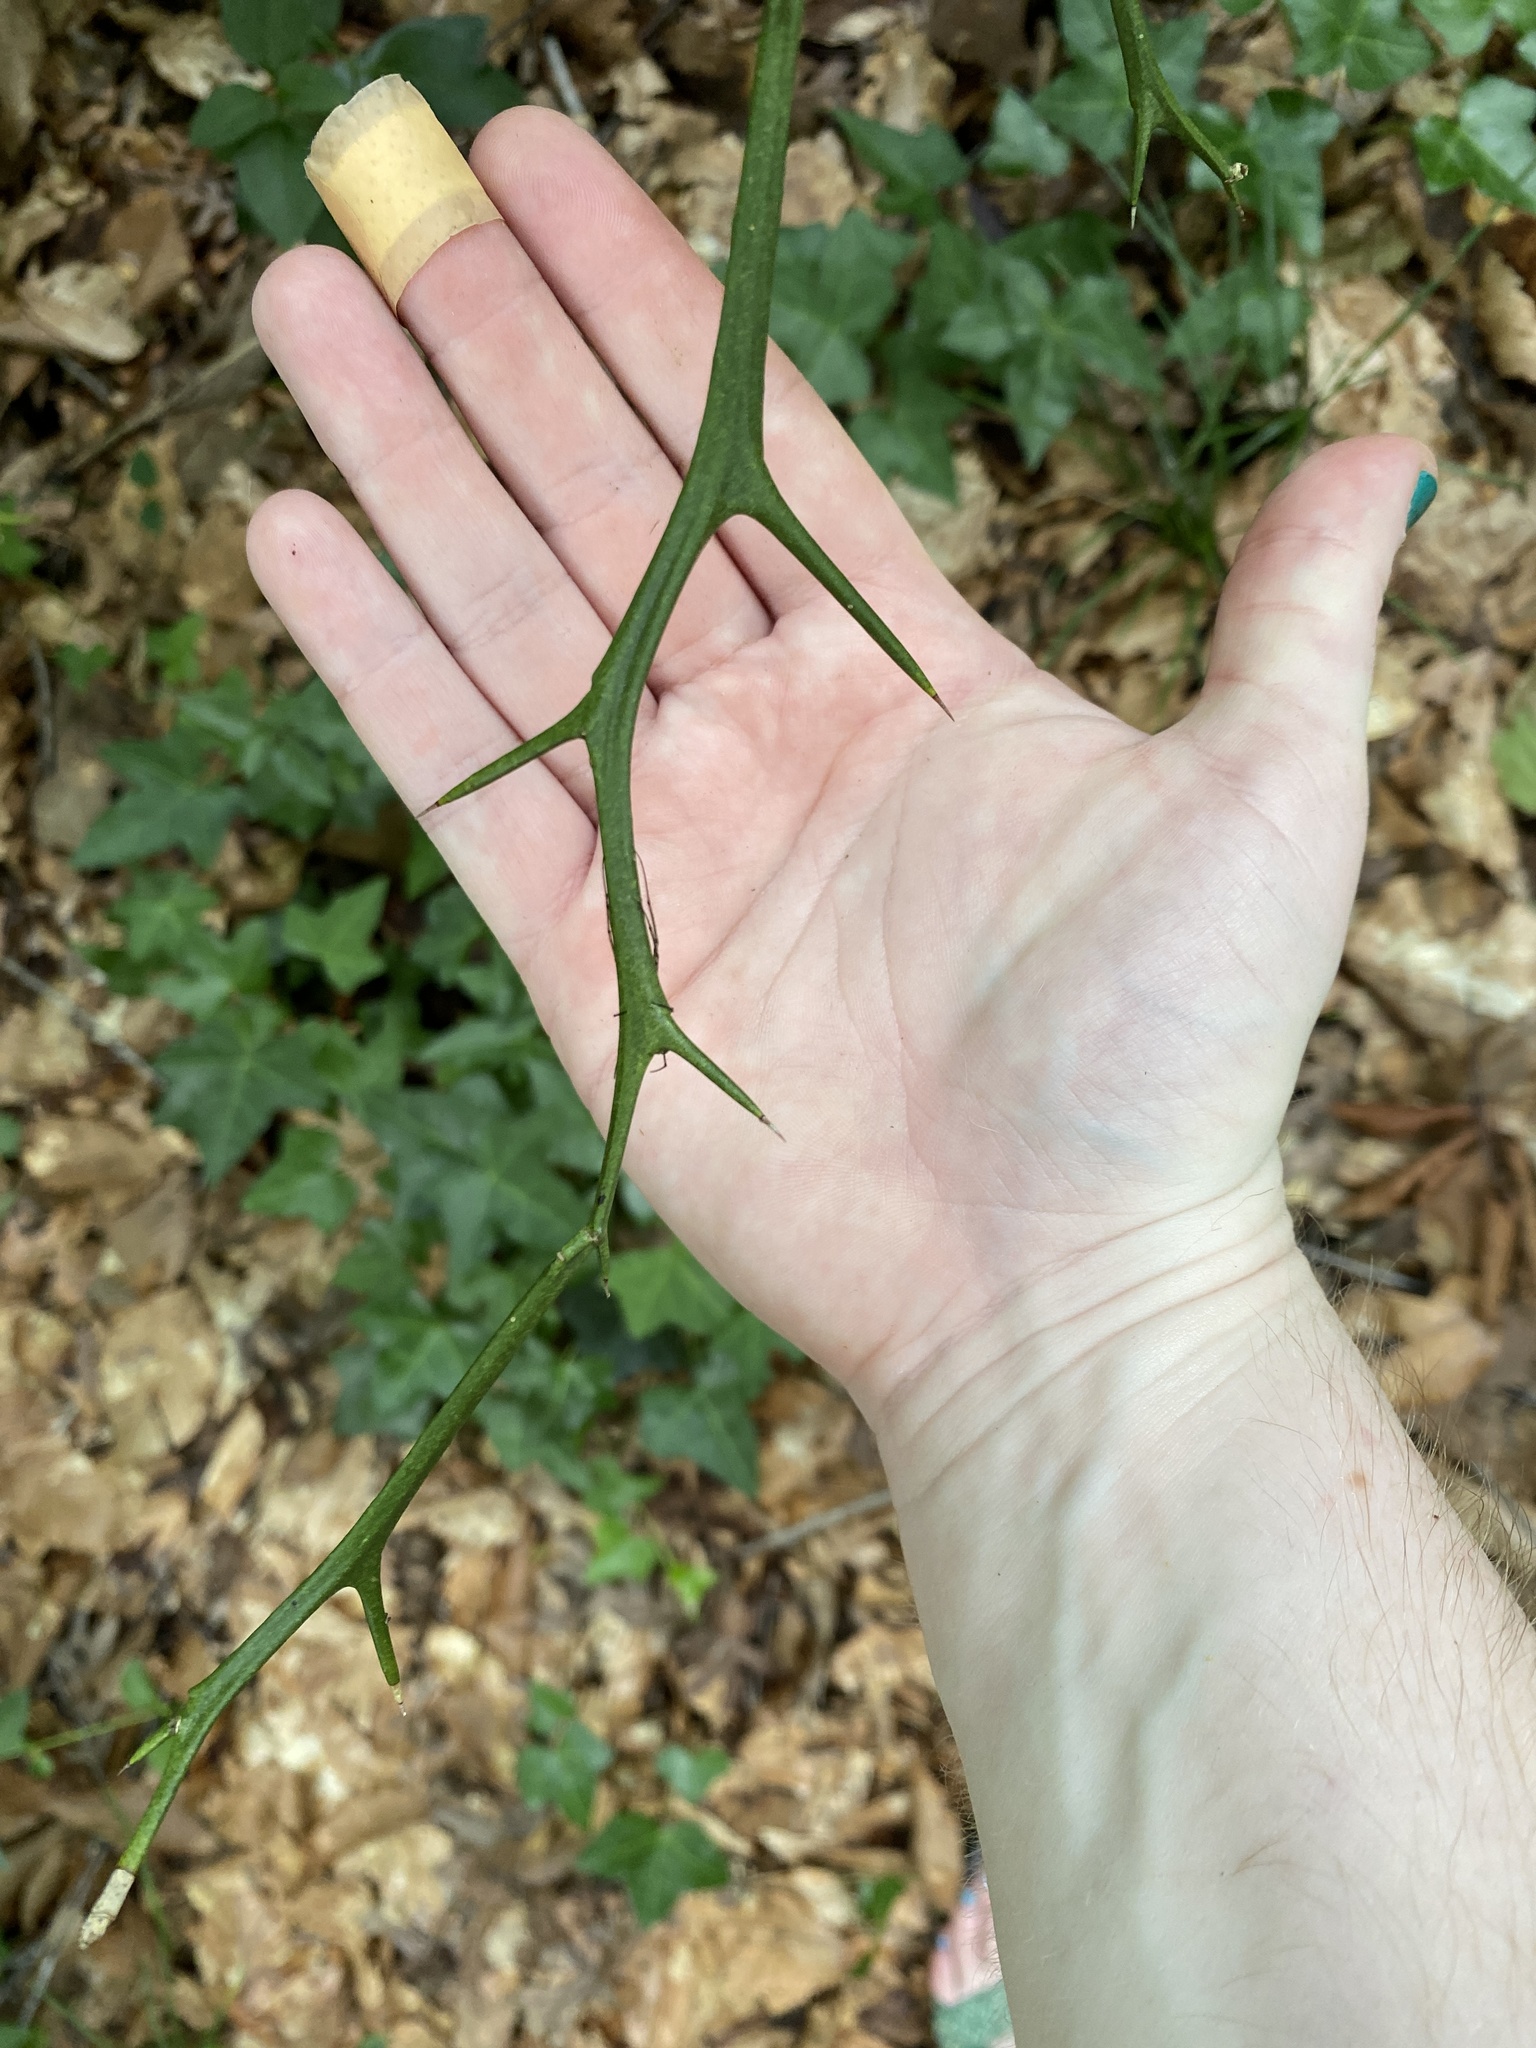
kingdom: Plantae
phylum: Tracheophyta
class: Magnoliopsida
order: Sapindales
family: Rutaceae
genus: Citrus
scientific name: Citrus trifoliata
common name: Japanese bitter-orange
